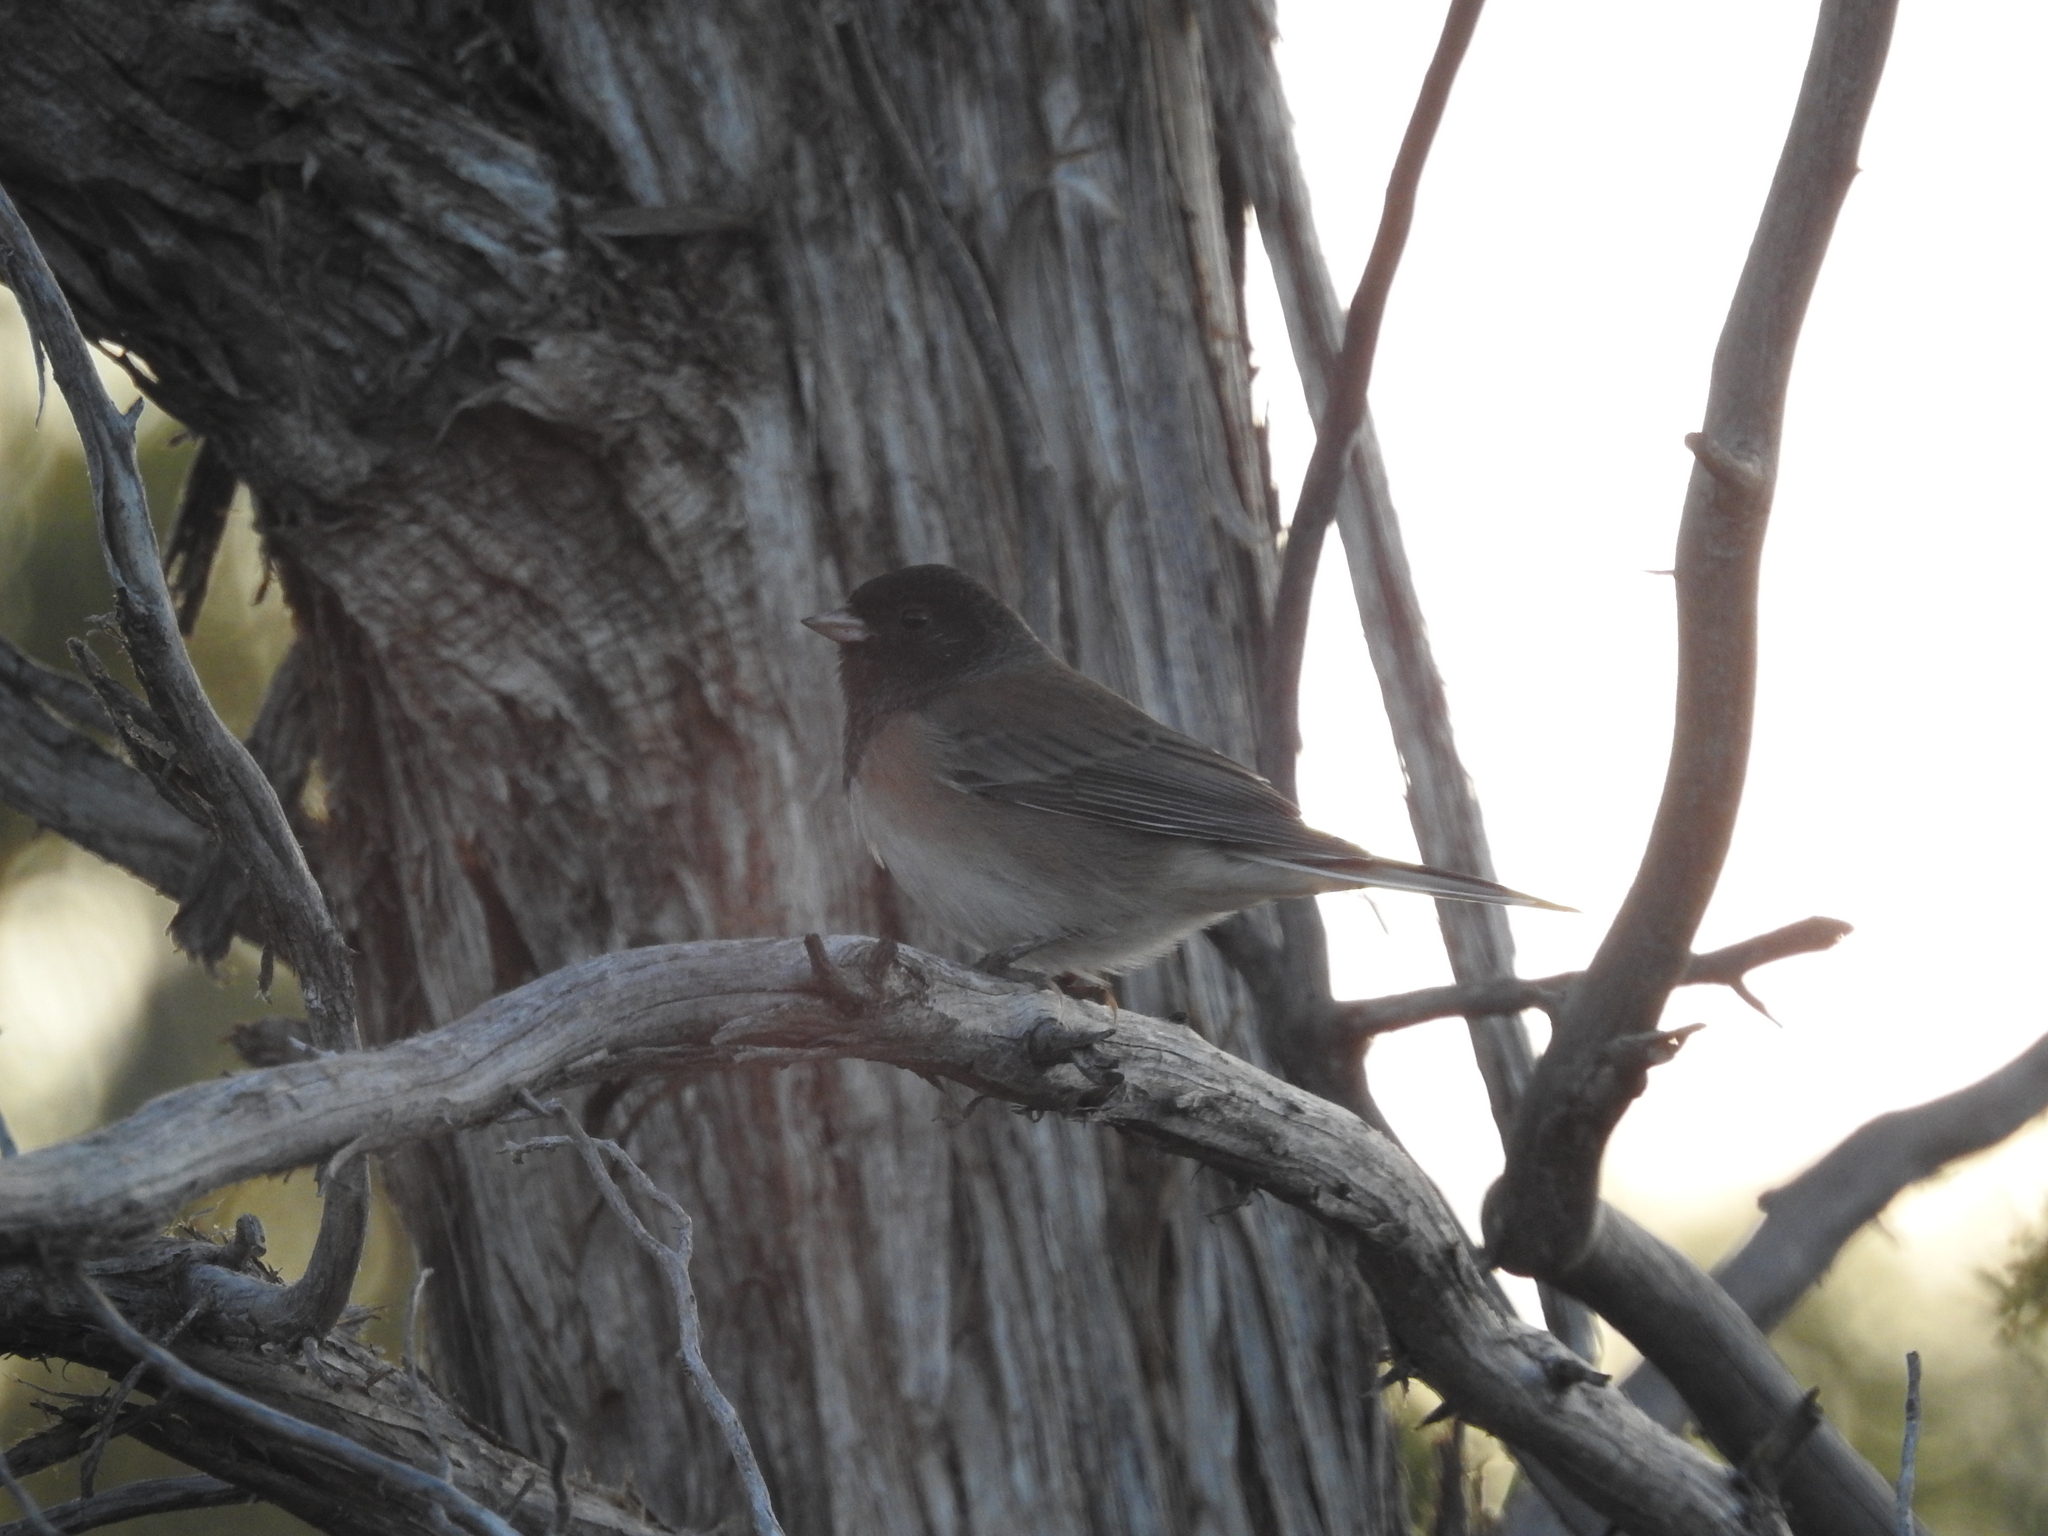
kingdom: Animalia
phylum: Chordata
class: Aves
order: Passeriformes
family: Passerellidae
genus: Junco
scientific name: Junco hyemalis
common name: Dark-eyed junco
